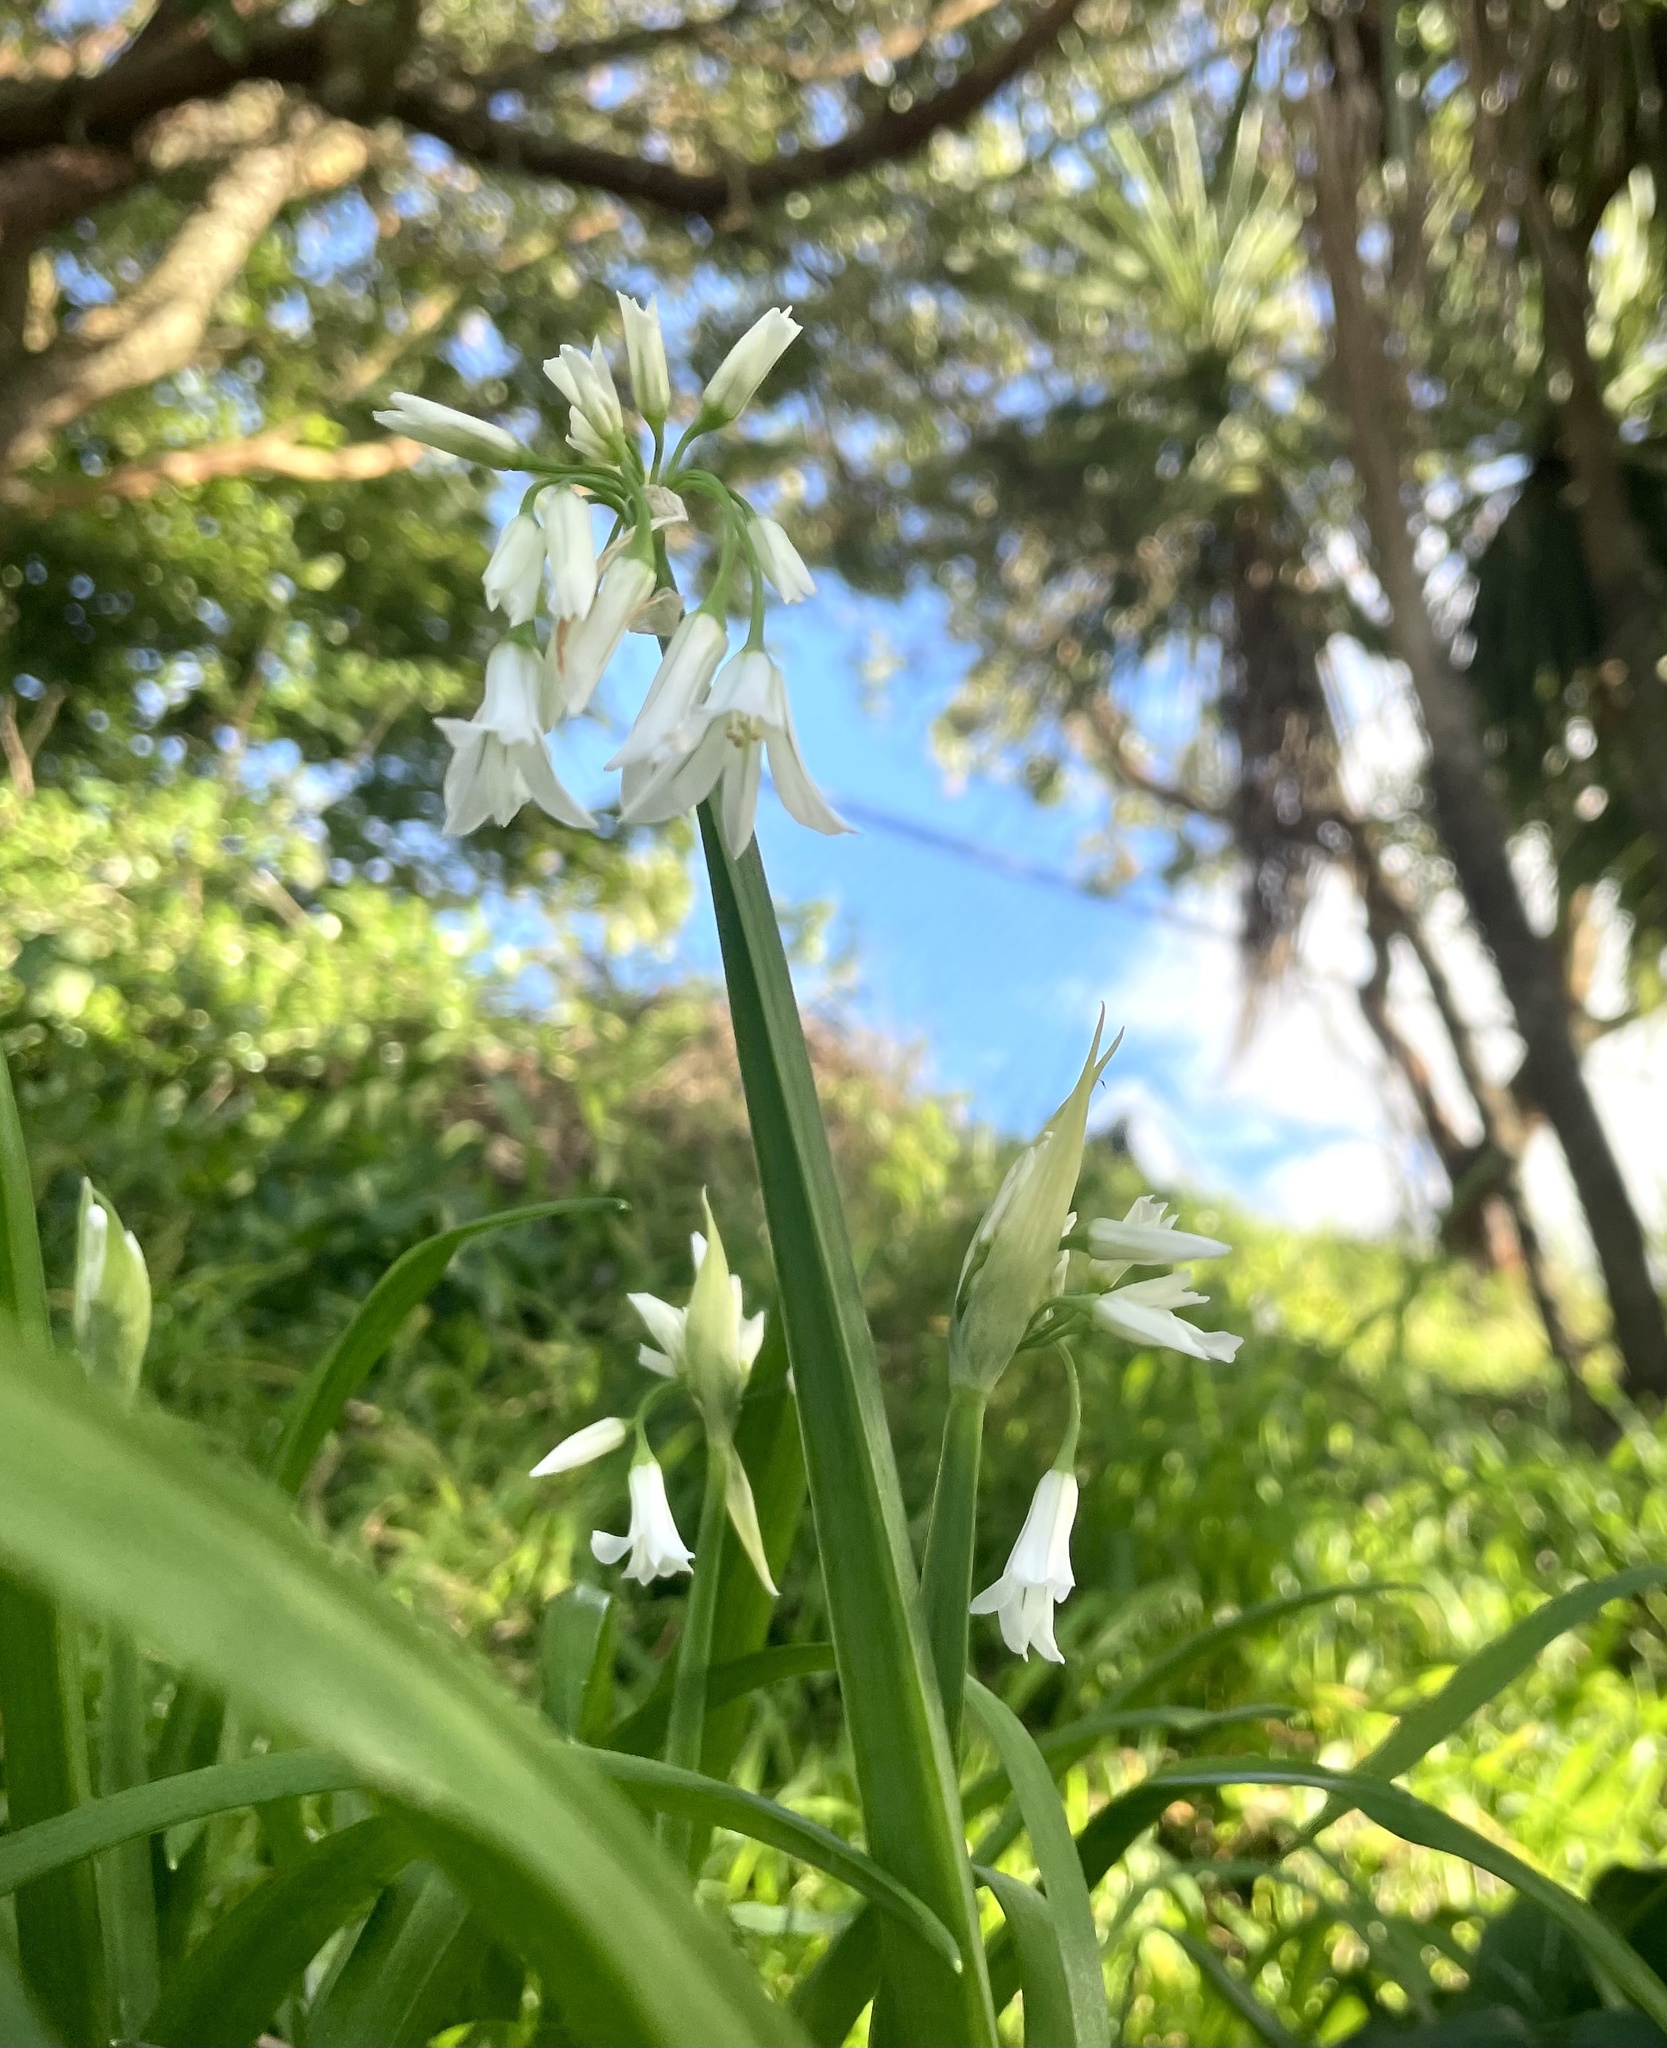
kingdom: Plantae
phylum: Tracheophyta
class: Liliopsida
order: Asparagales
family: Amaryllidaceae
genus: Allium
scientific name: Allium triquetrum
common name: Three-cornered garlic
